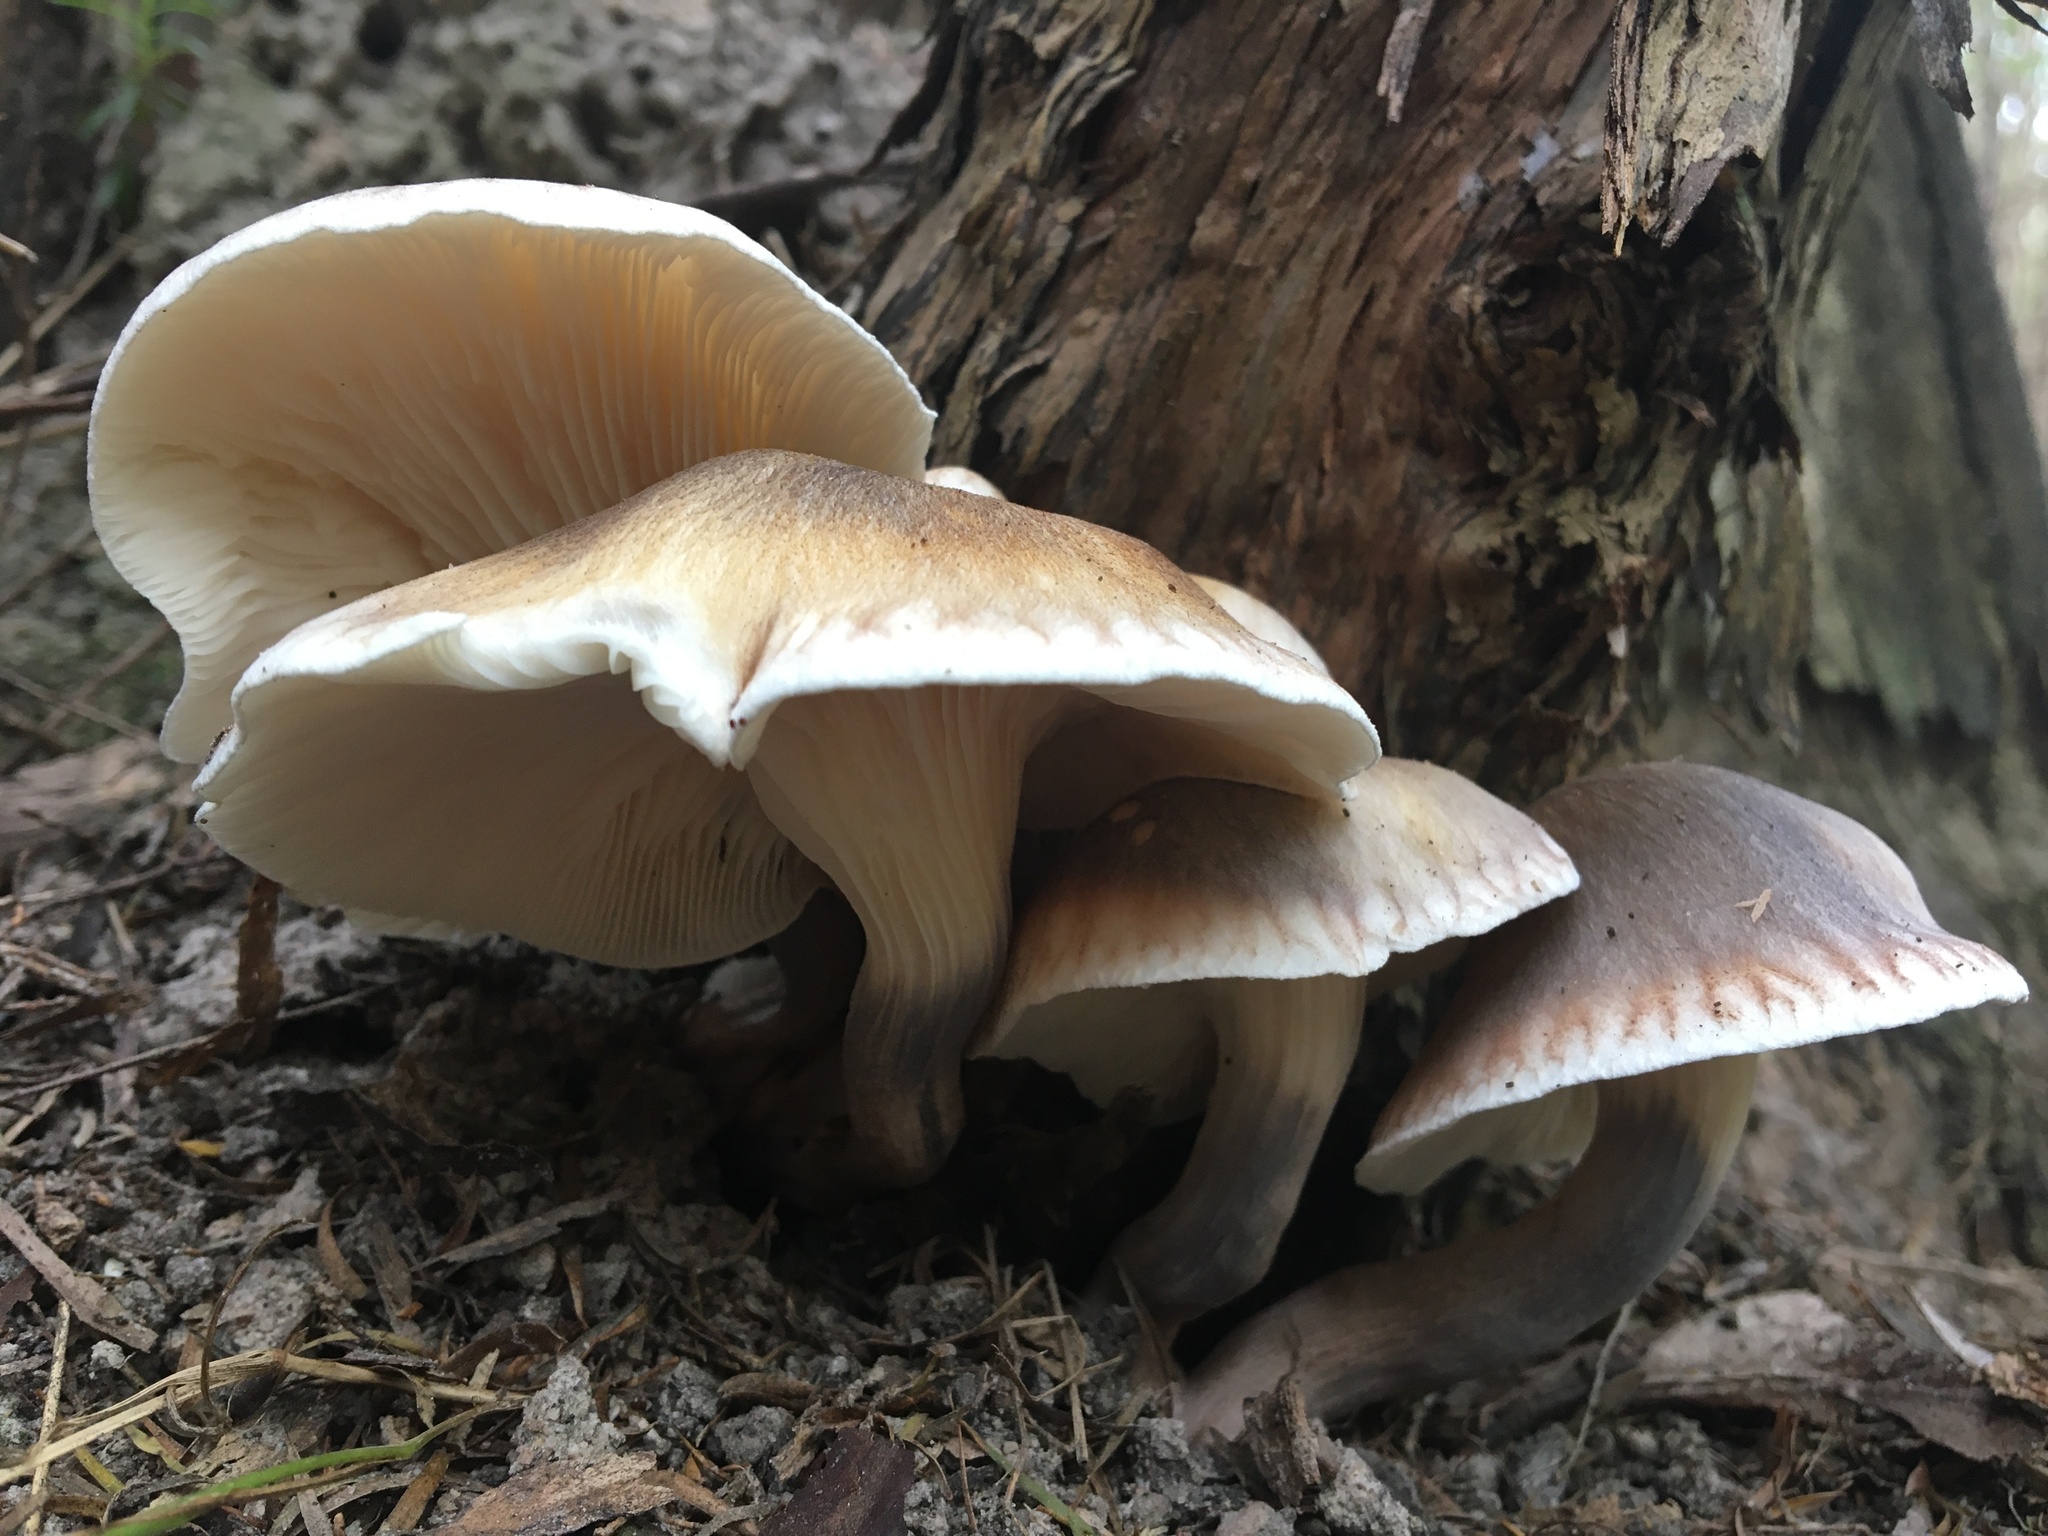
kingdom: Fungi
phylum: Basidiomycota
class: Agaricomycetes
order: Agaricales
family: Omphalotaceae
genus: Omphalotus
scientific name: Omphalotus nidiformis
